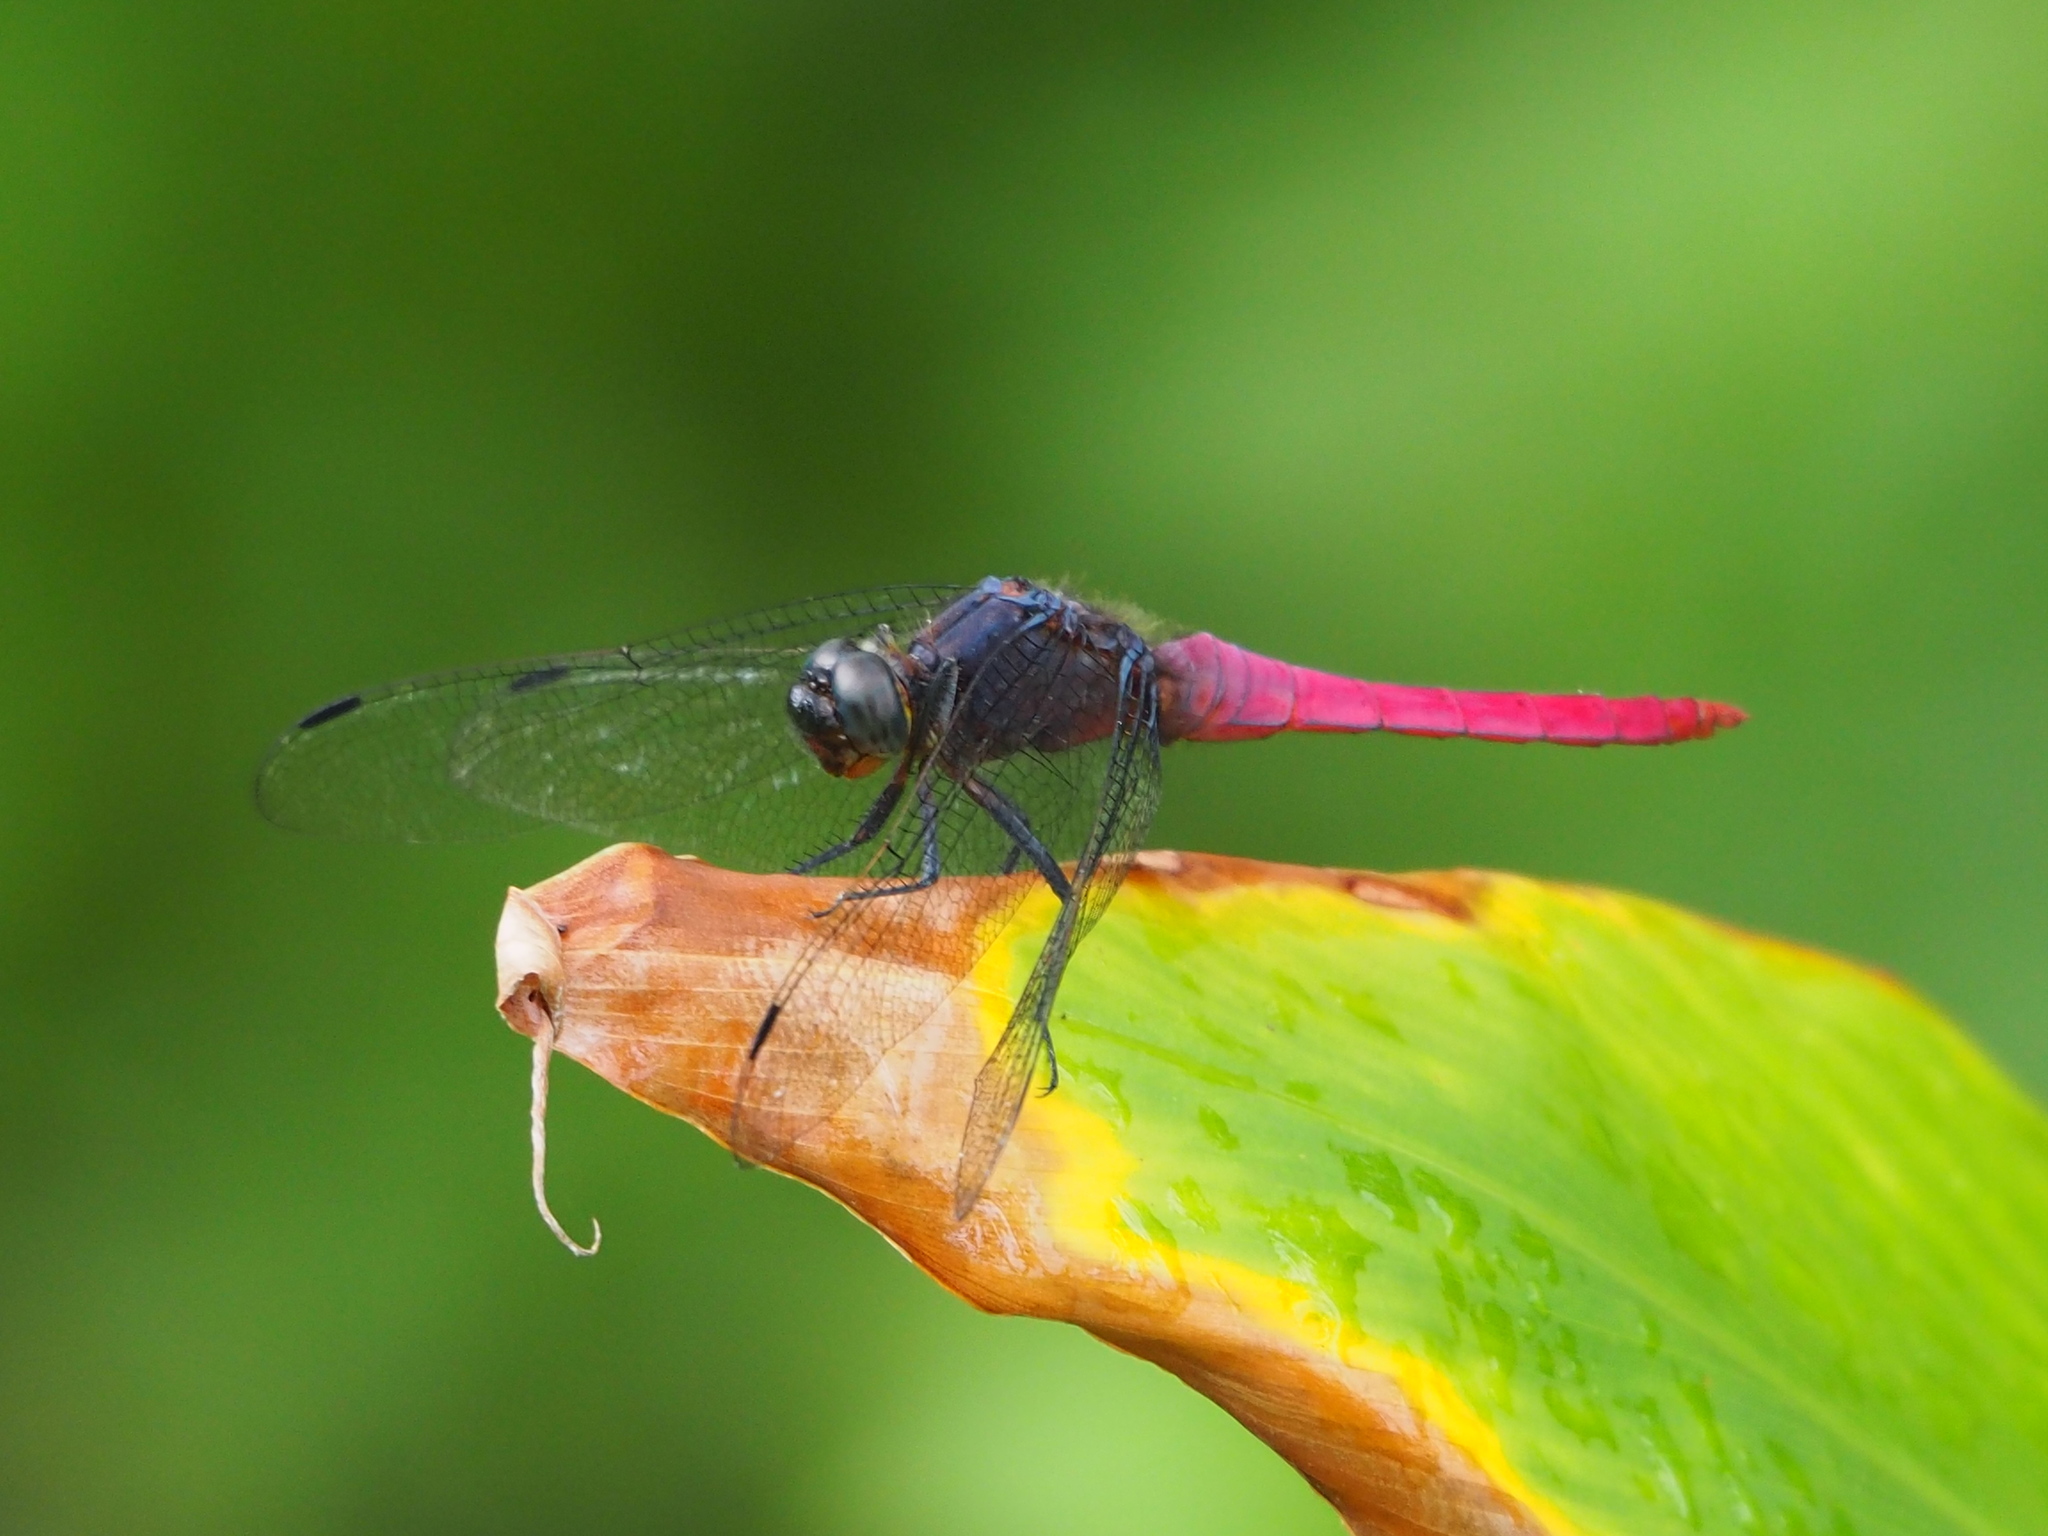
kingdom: Animalia
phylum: Arthropoda
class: Insecta
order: Odonata
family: Libellulidae
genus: Orthetrum
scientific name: Orthetrum pruinosum
